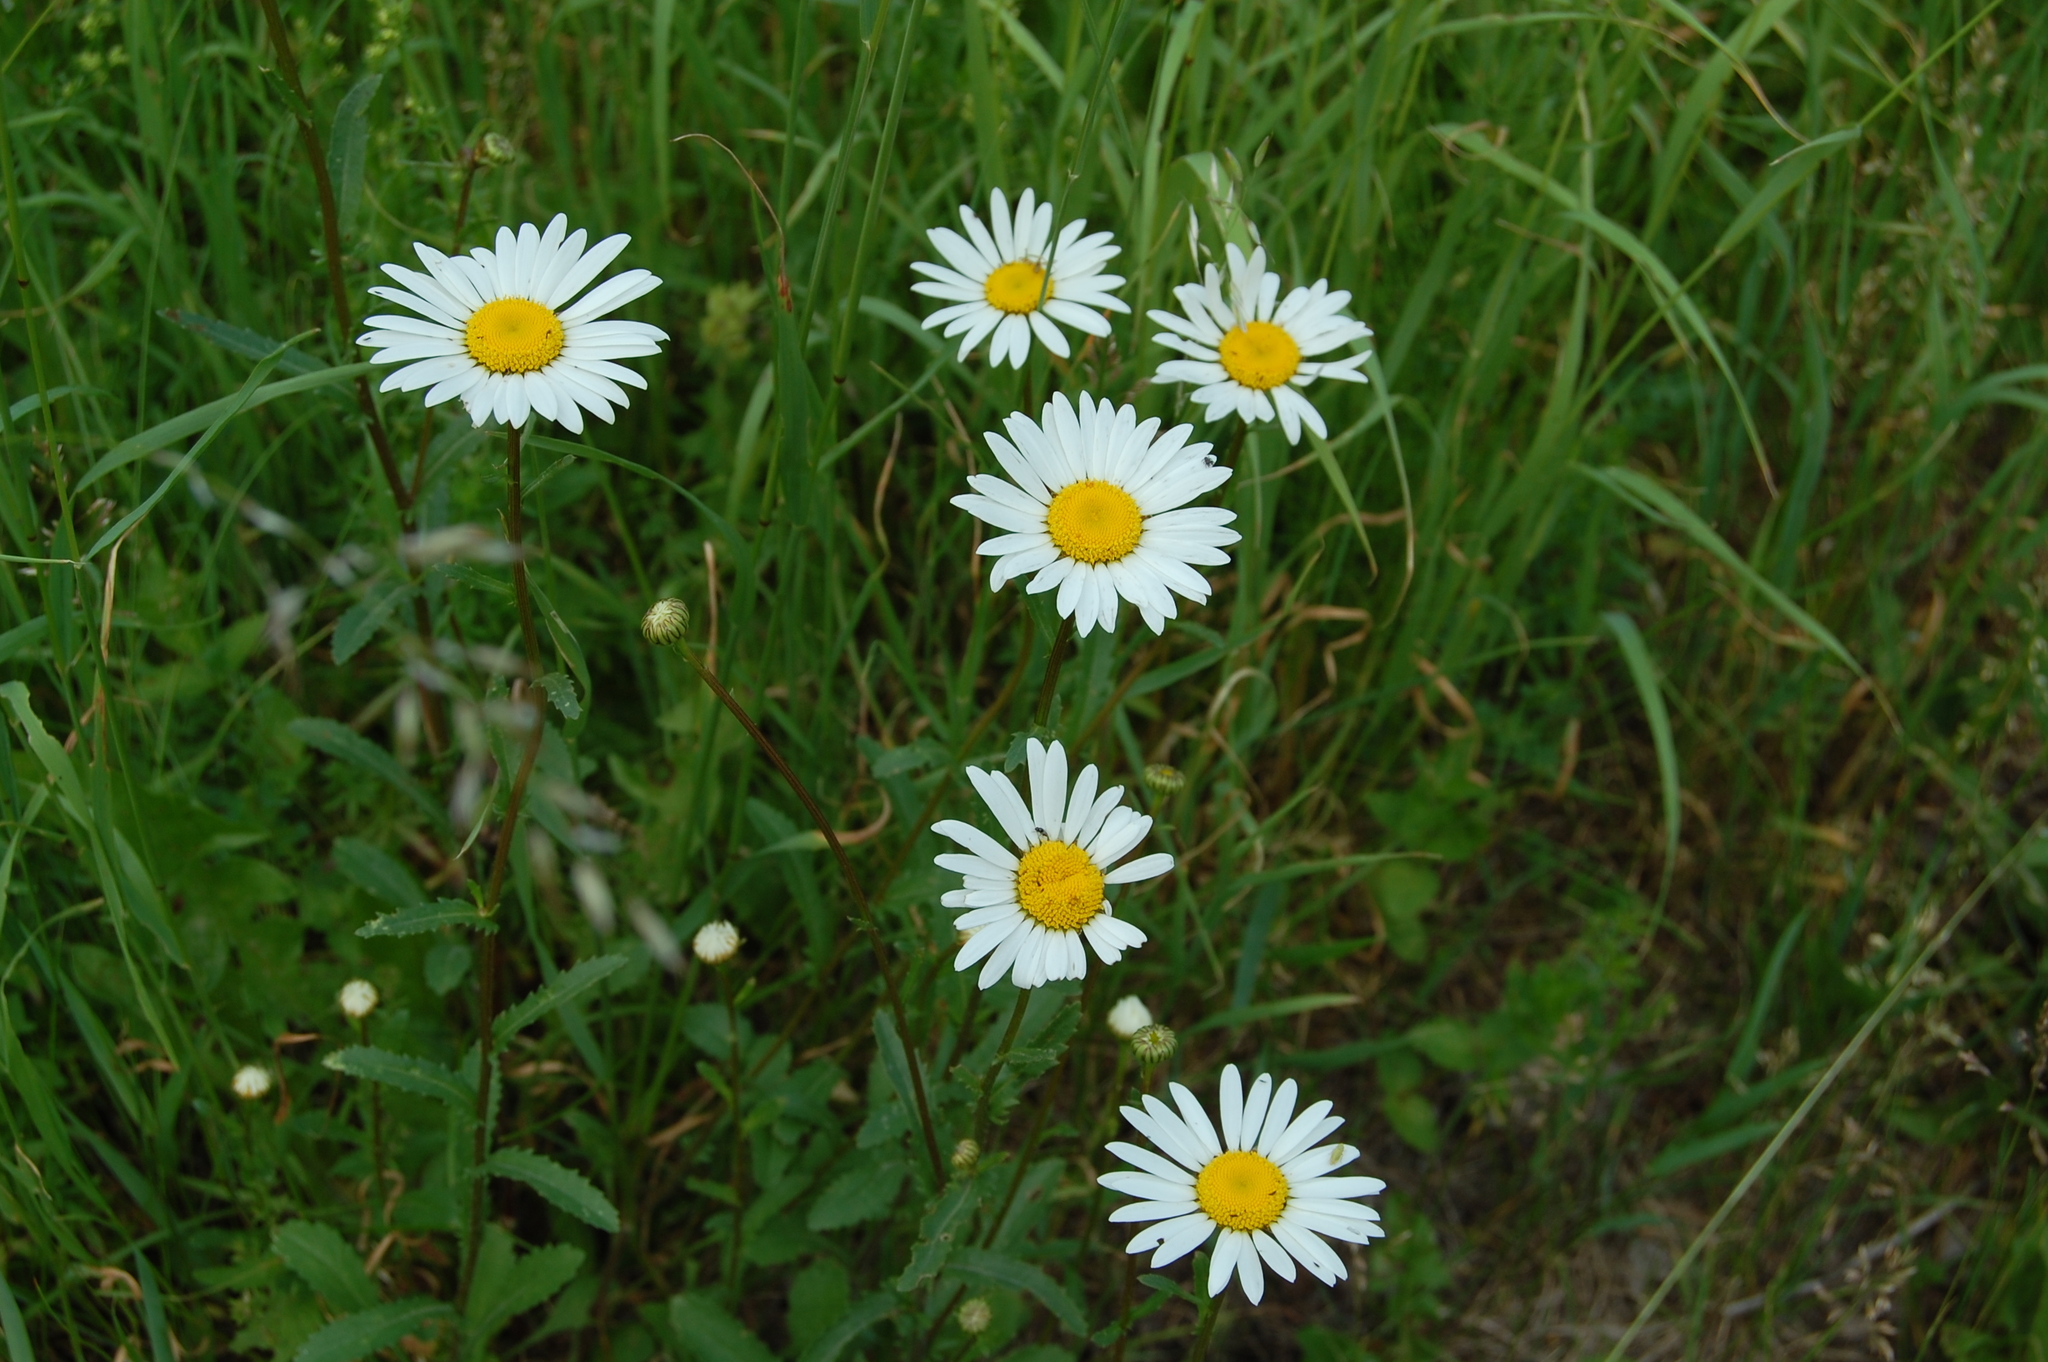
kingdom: Plantae
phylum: Tracheophyta
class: Magnoliopsida
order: Asterales
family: Asteraceae
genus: Leucanthemum
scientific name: Leucanthemum vulgare
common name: Oxeye daisy
